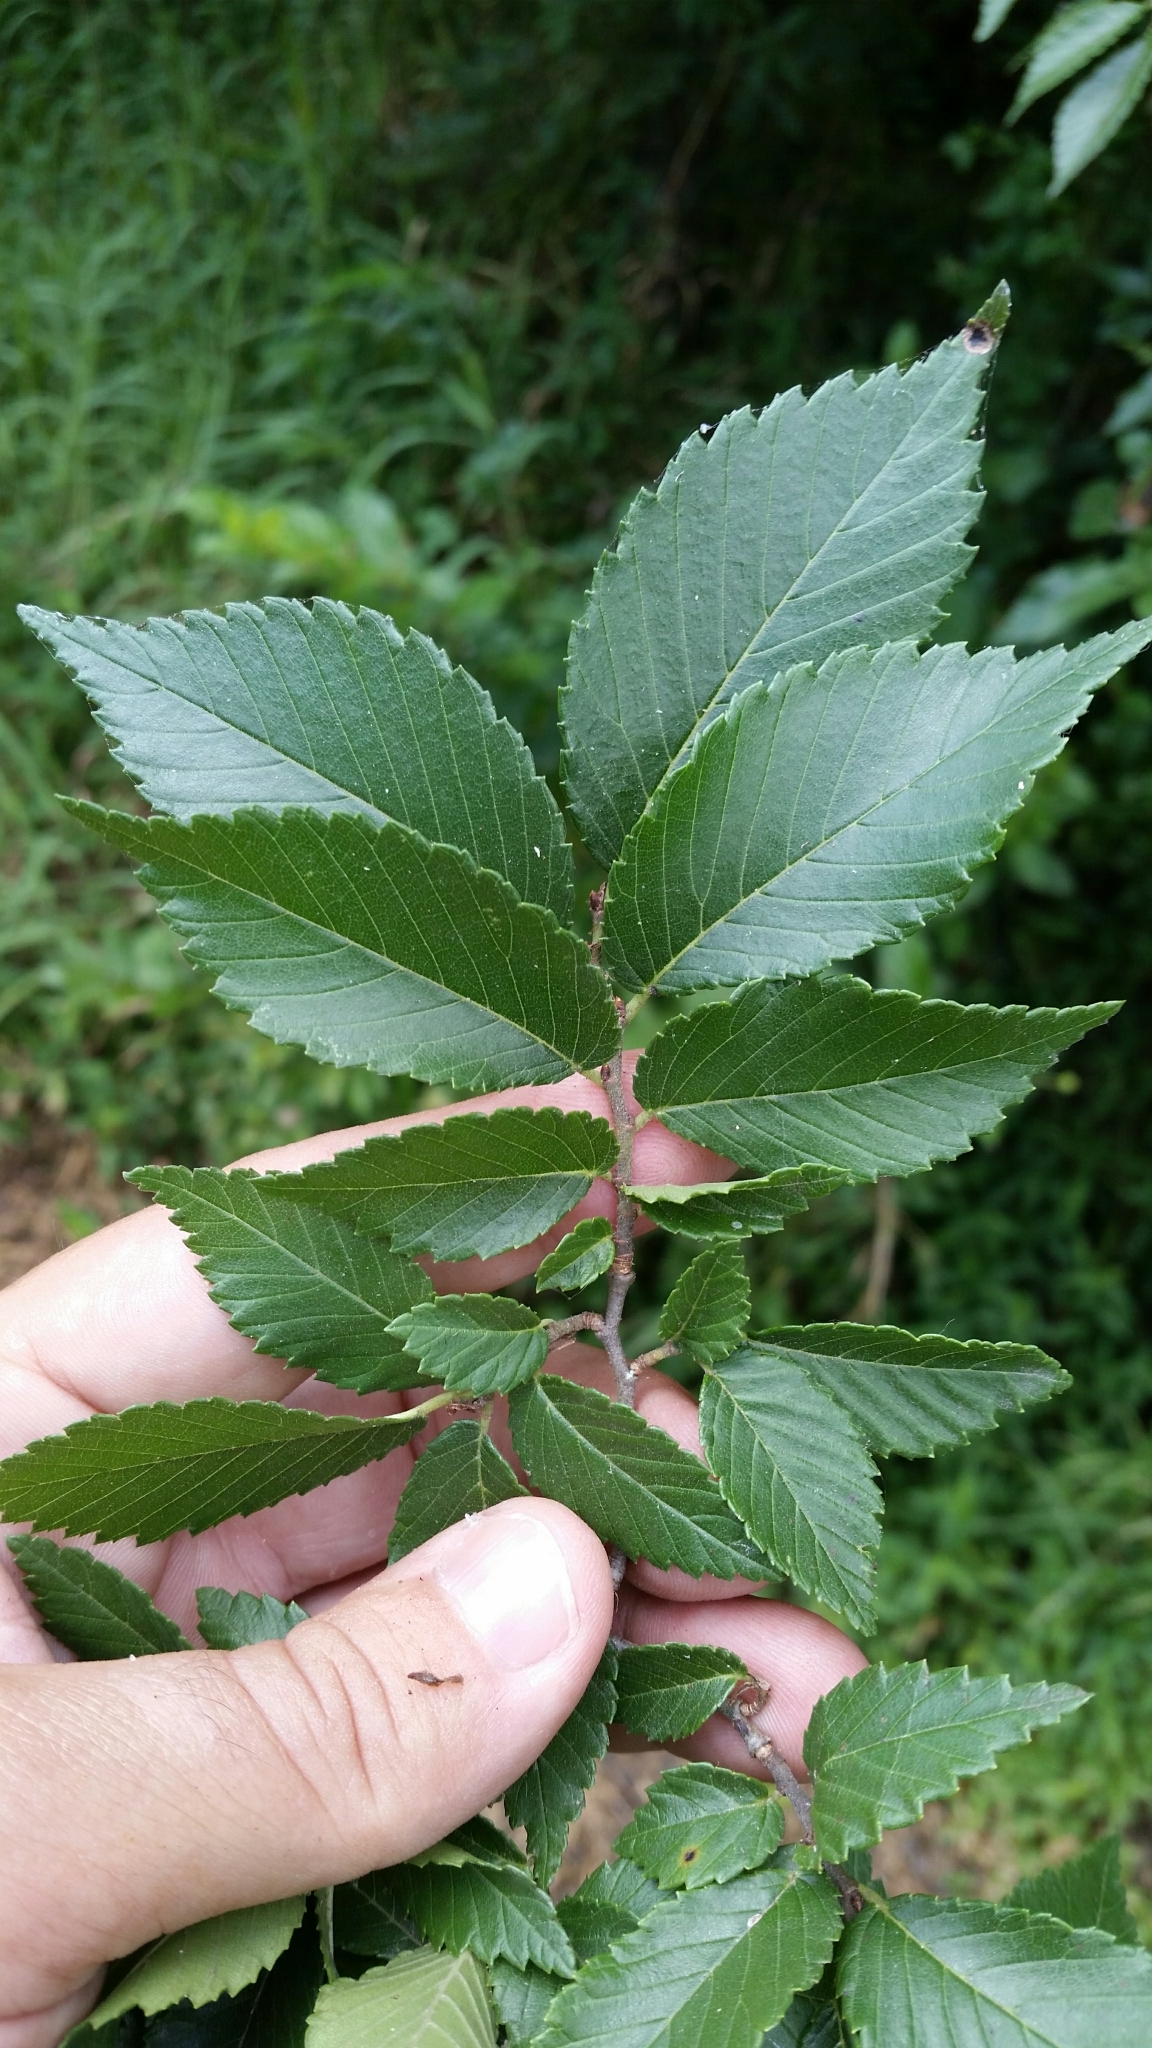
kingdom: Plantae
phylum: Tracheophyta
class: Magnoliopsida
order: Rosales
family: Ulmaceae
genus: Ulmus
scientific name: Ulmus americana
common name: American elm
